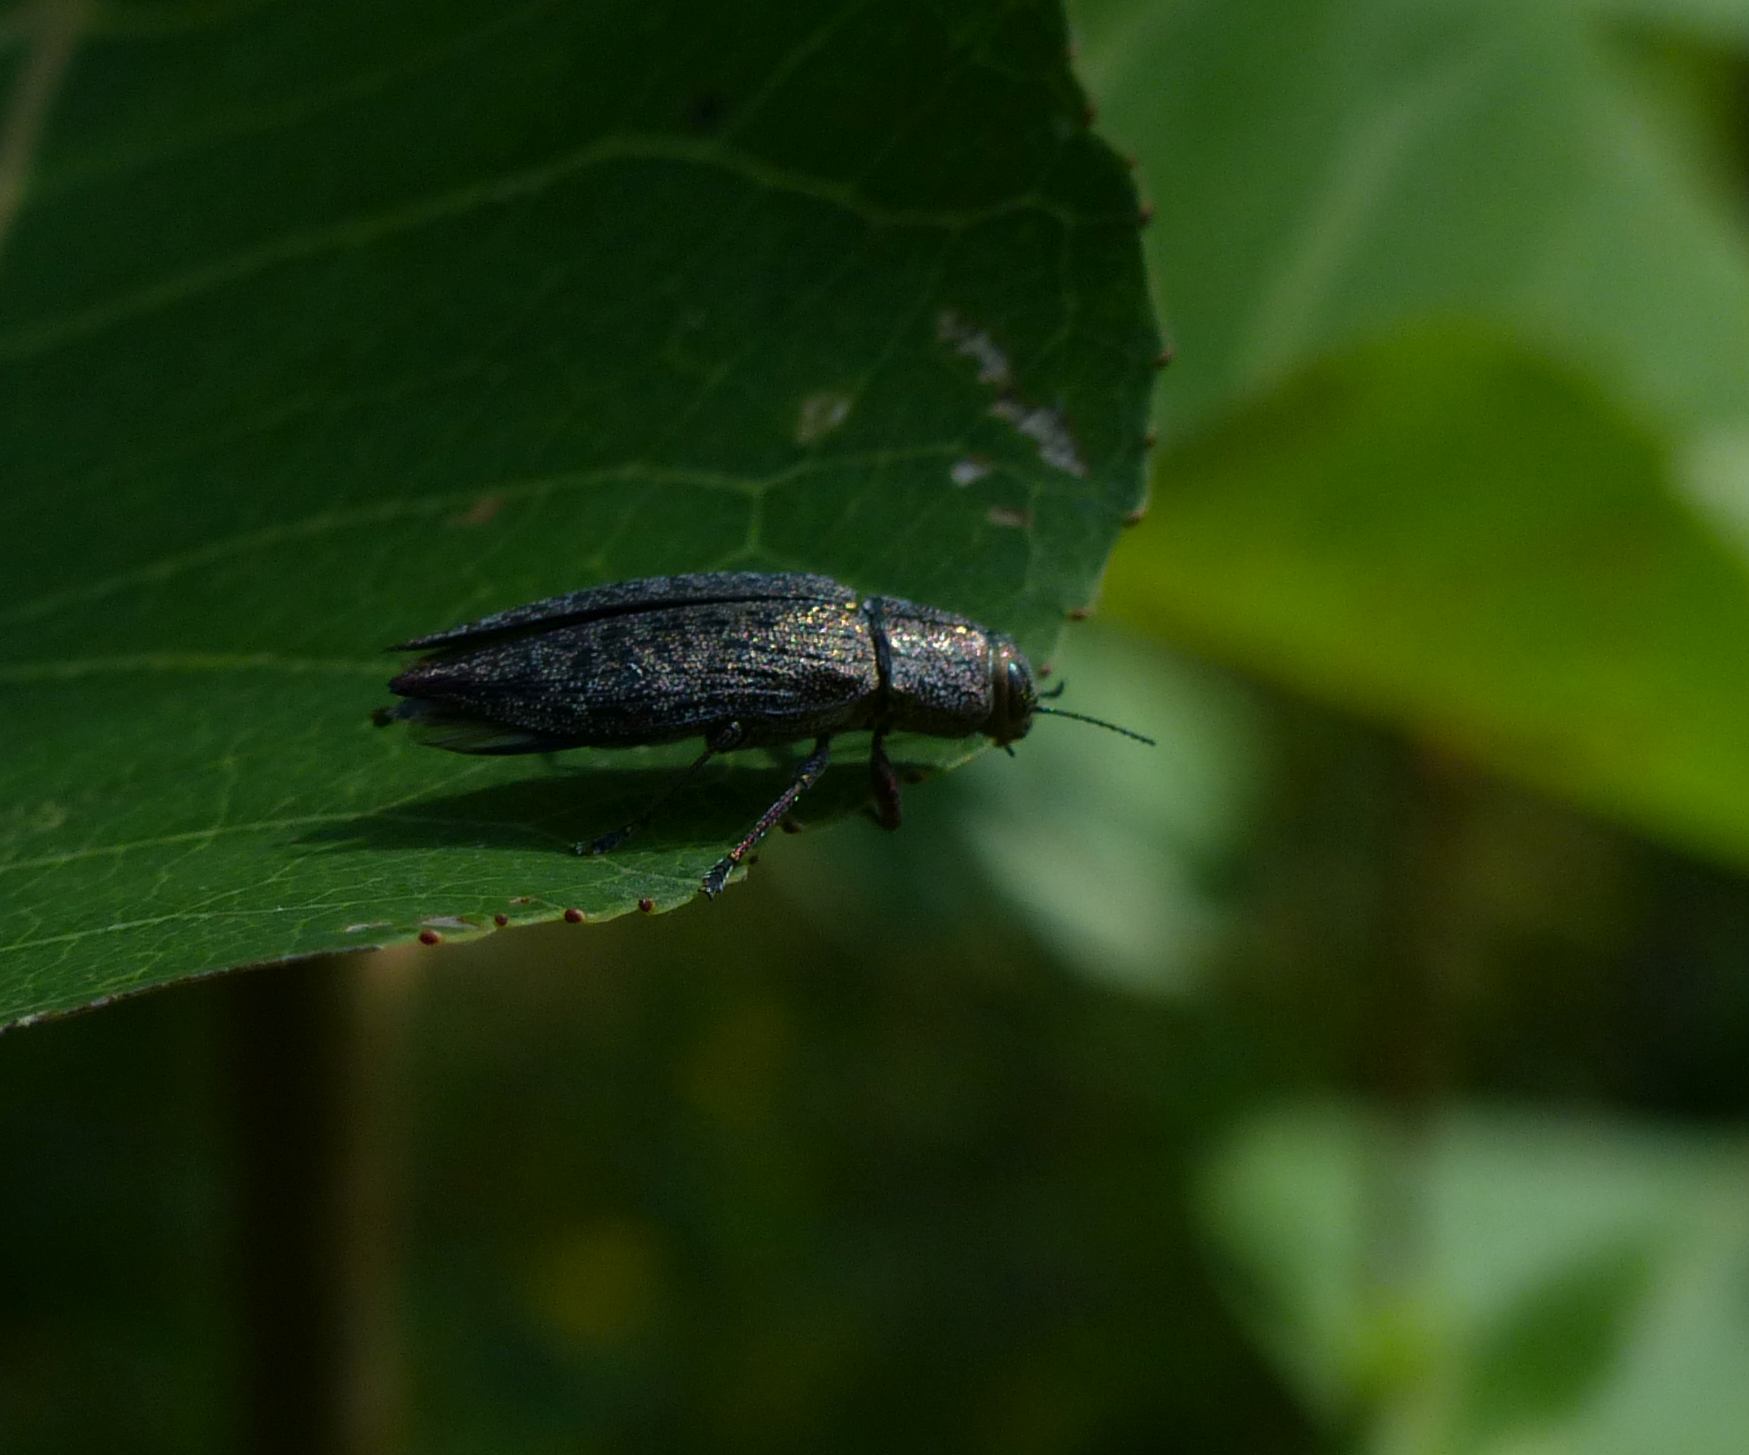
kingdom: Animalia
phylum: Arthropoda
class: Insecta
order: Coleoptera
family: Buprestidae
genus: Poecilonota
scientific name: Poecilonota cyanipes
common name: Eastern poplar buprestid beetle
